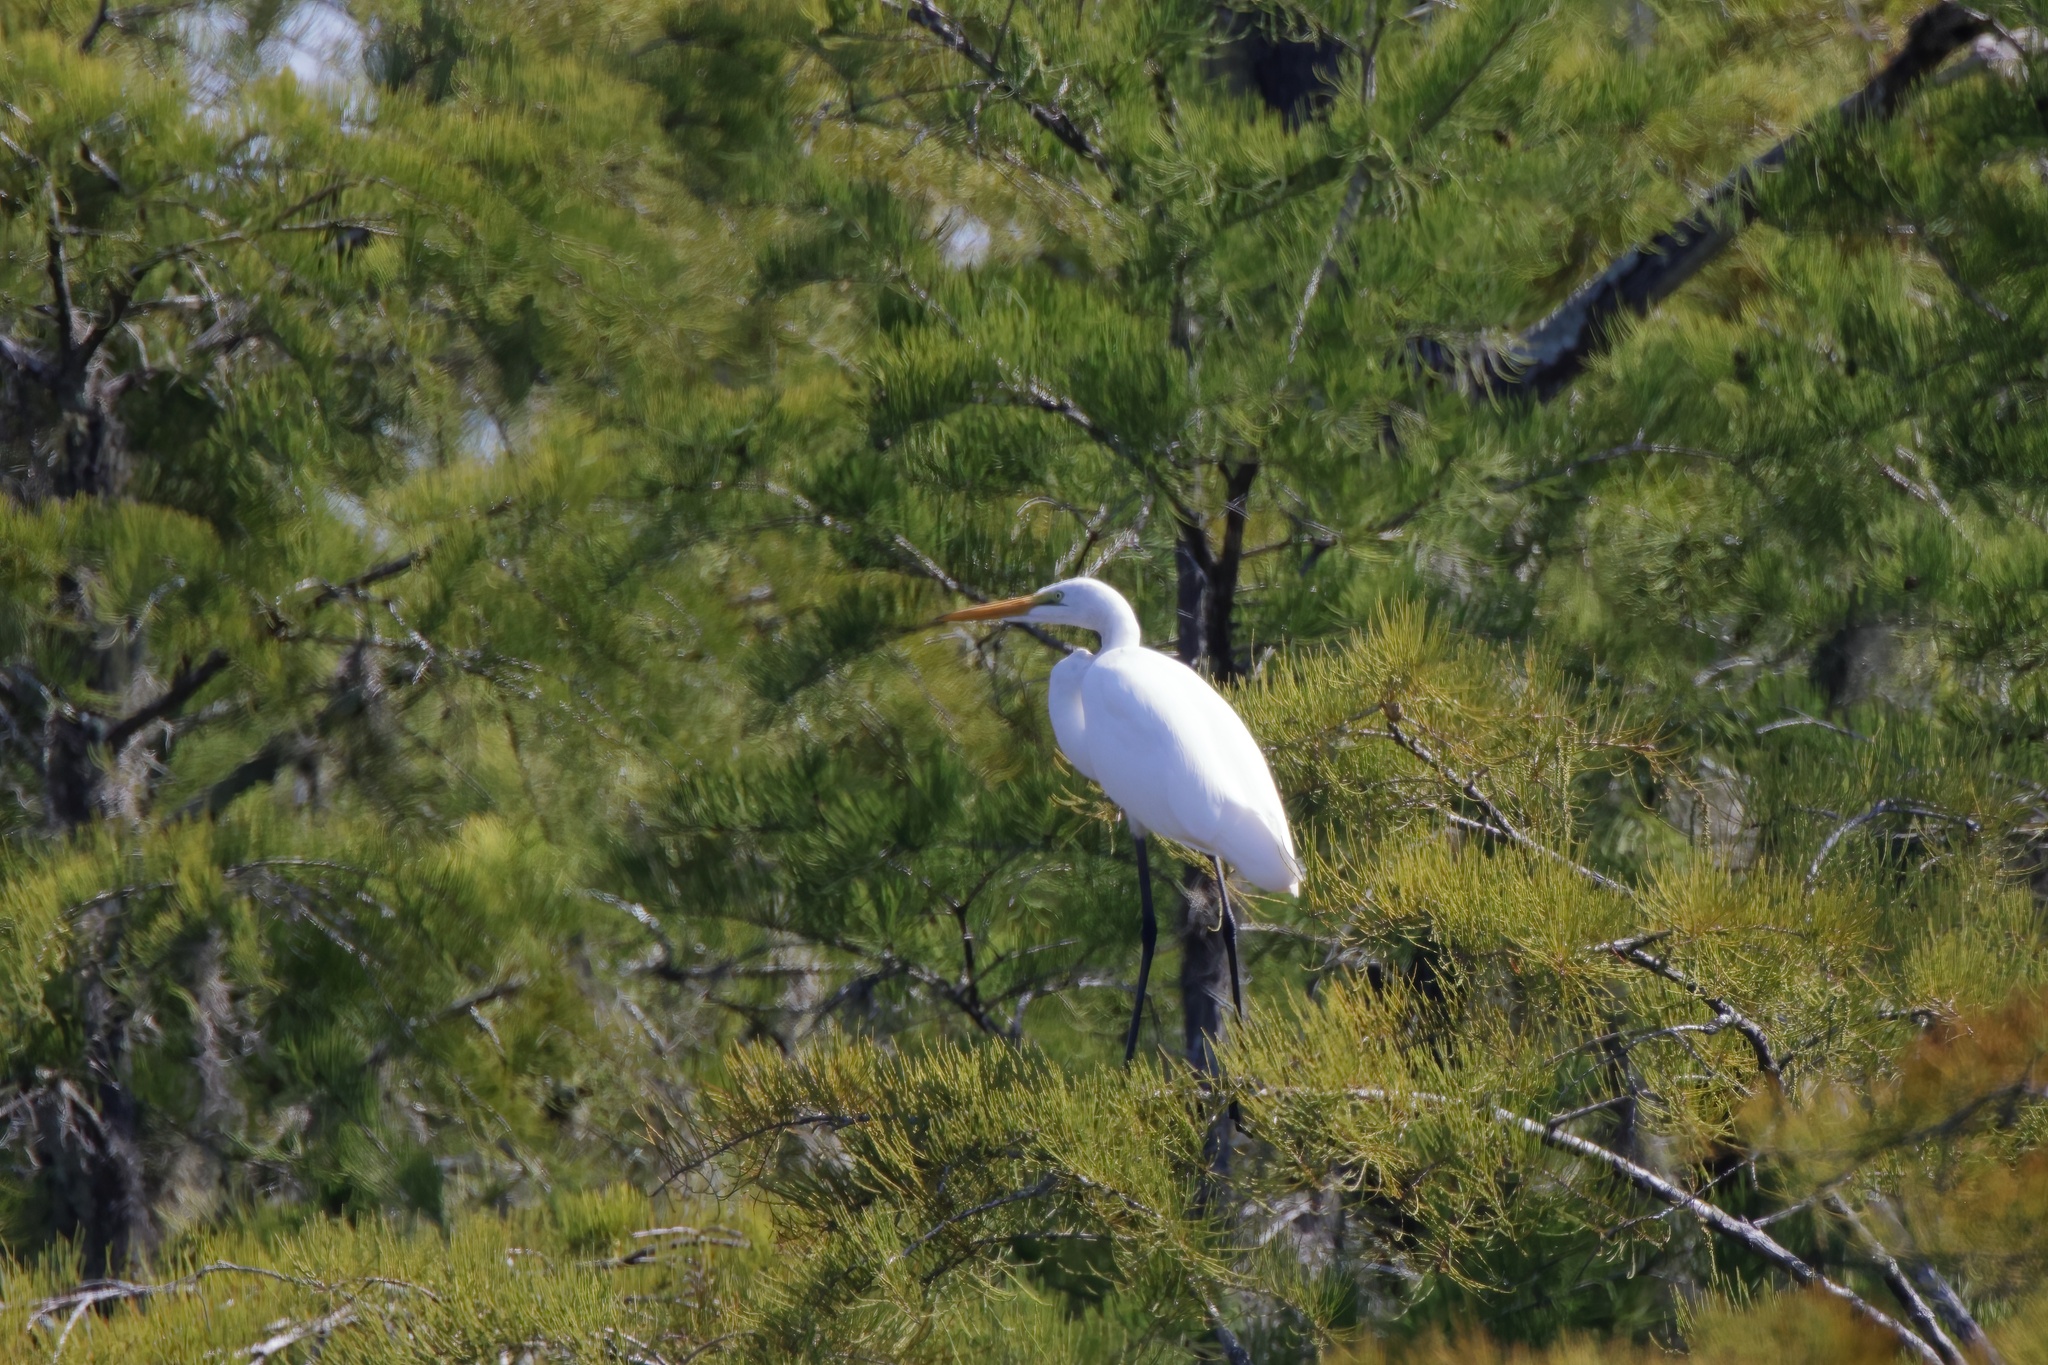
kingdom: Animalia
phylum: Chordata
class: Aves
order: Pelecaniformes
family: Ardeidae
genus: Ardea
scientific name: Ardea alba
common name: Great egret
